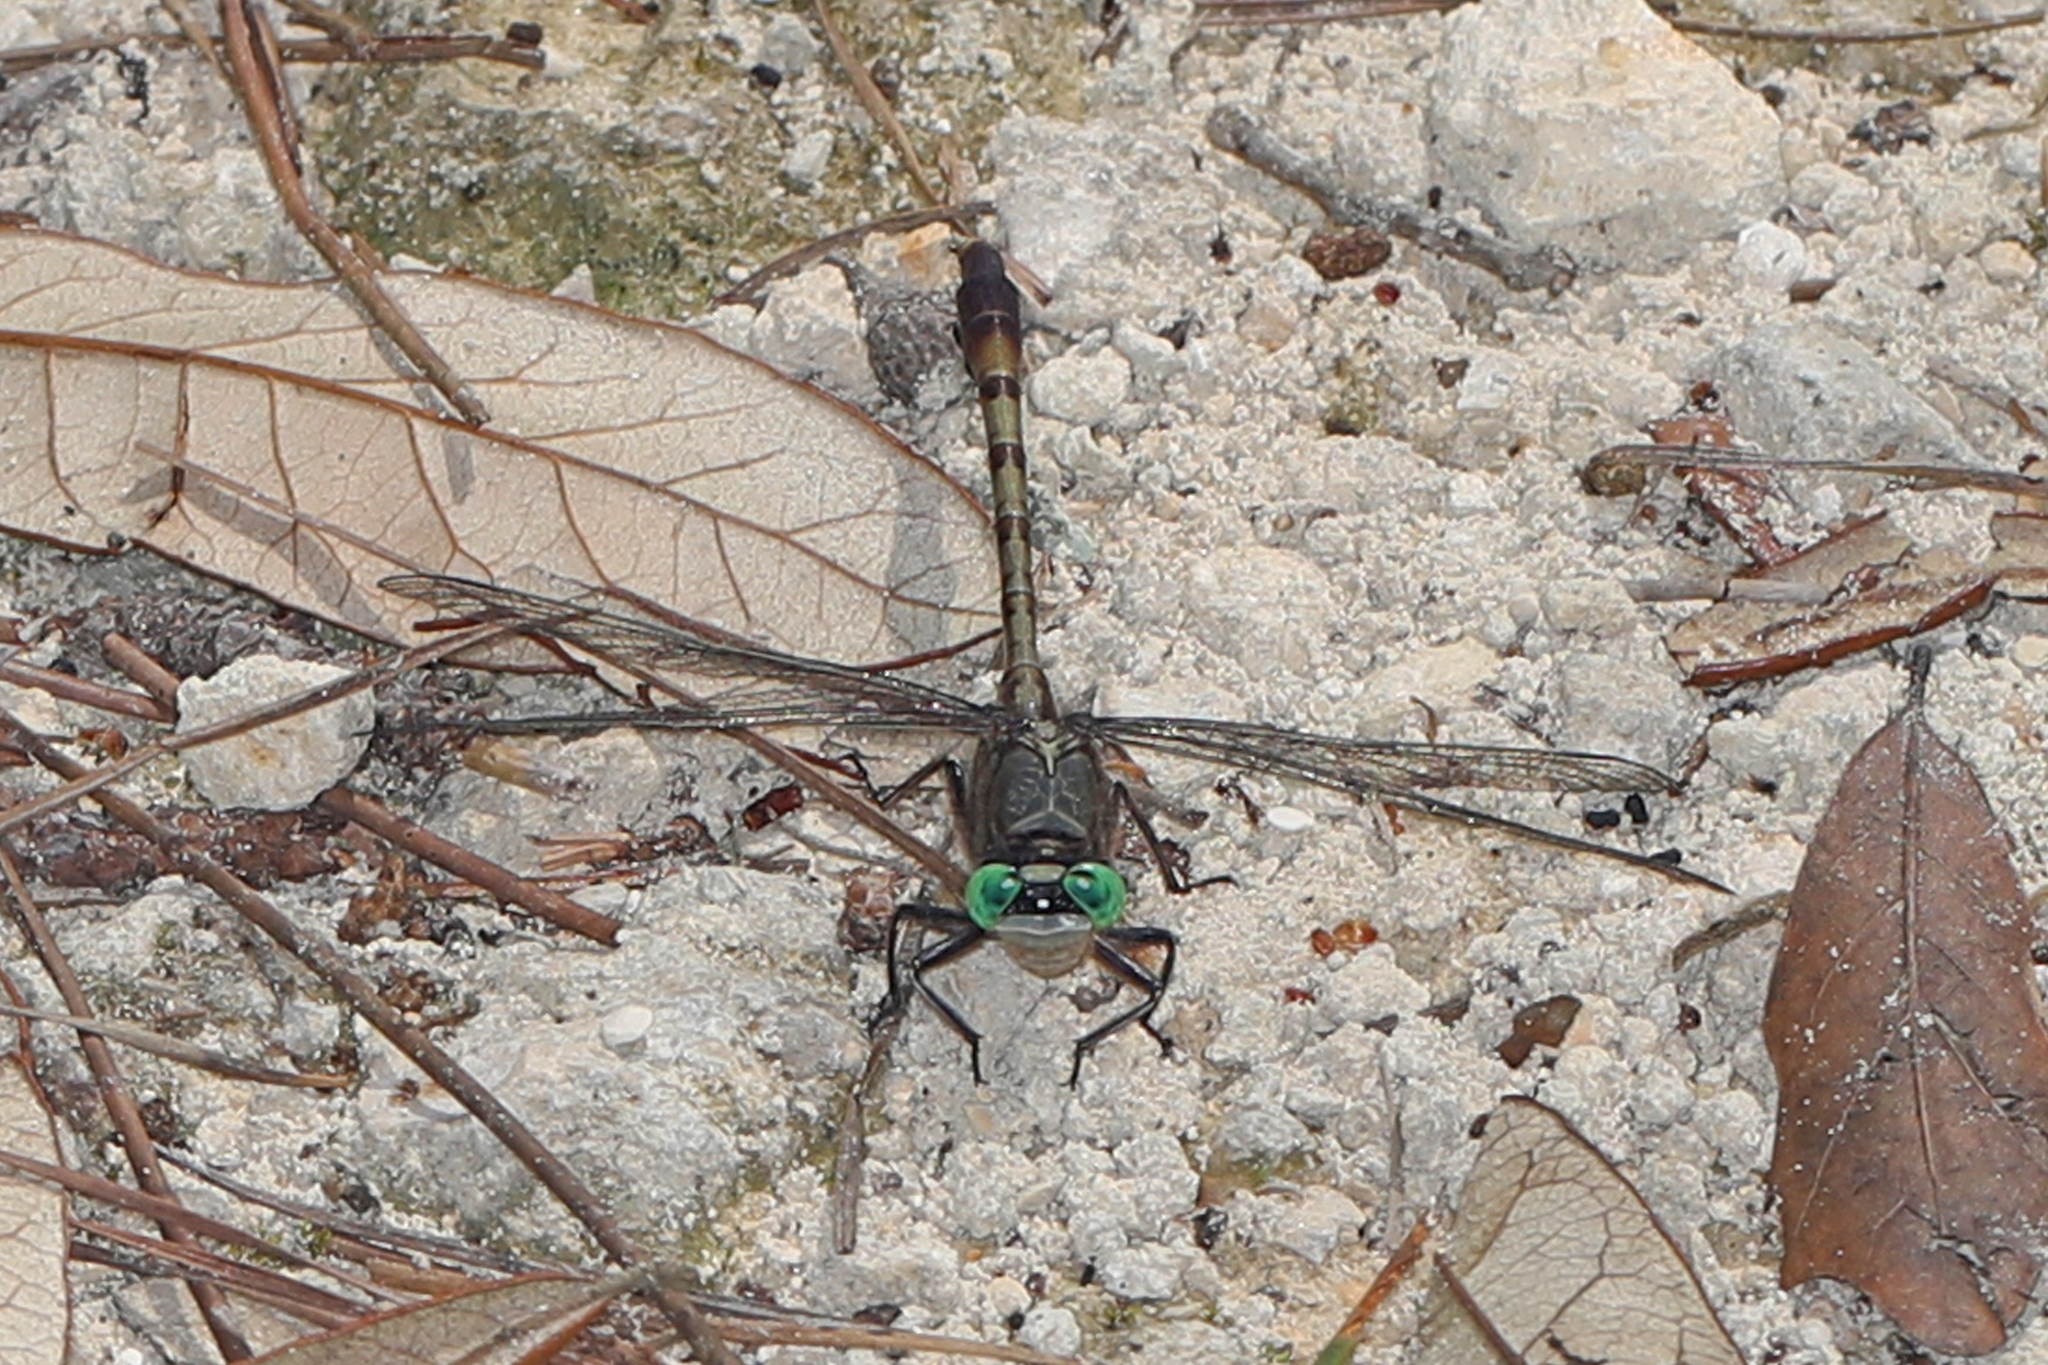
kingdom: Animalia
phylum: Arthropoda
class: Insecta
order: Odonata
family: Gomphidae
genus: Arigomphus
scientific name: Arigomphus pallidus
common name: Gray-green clubtail
